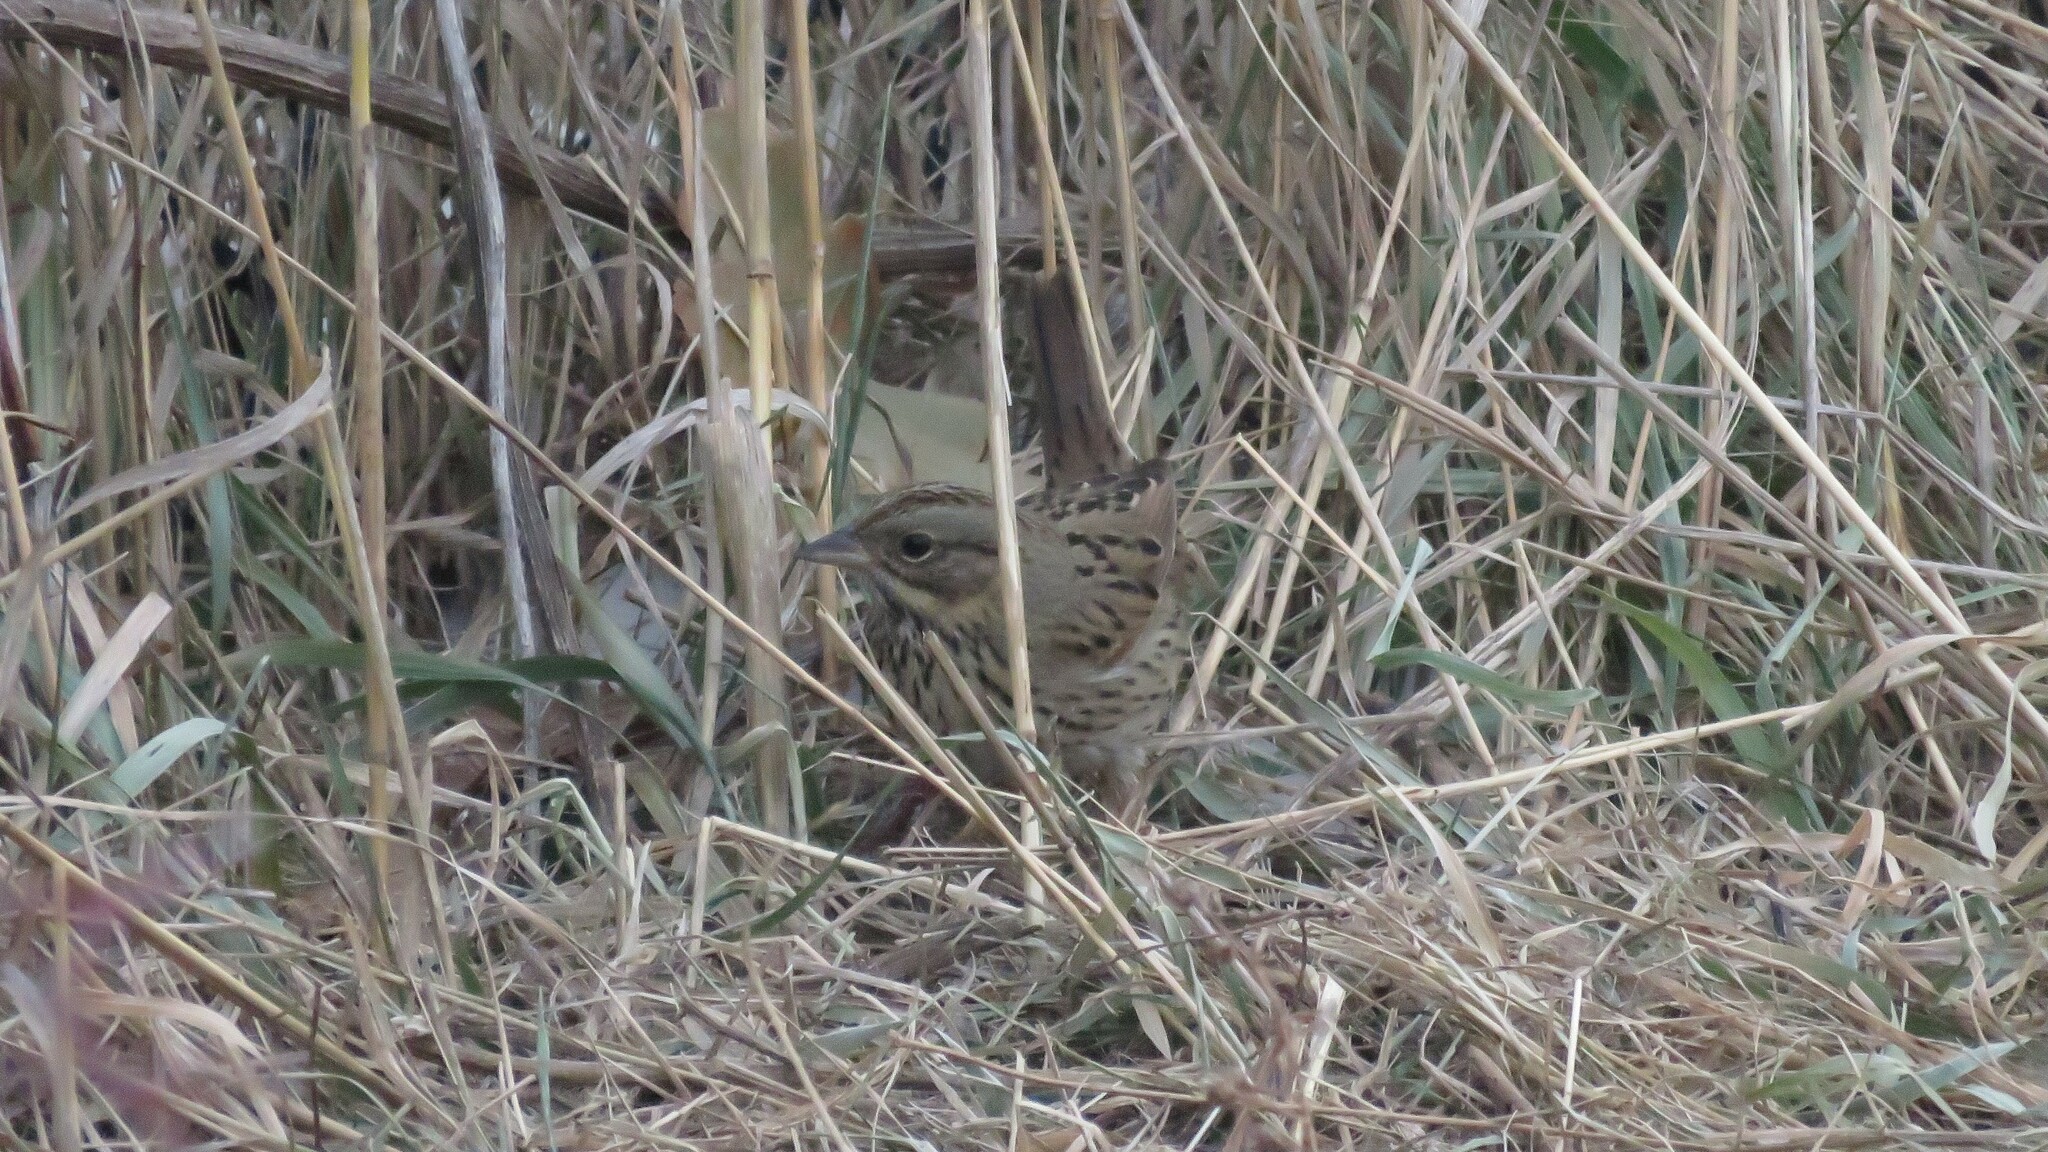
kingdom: Animalia
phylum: Chordata
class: Aves
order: Passeriformes
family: Passerellidae
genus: Melospiza
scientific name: Melospiza lincolnii
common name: Lincoln's sparrow
